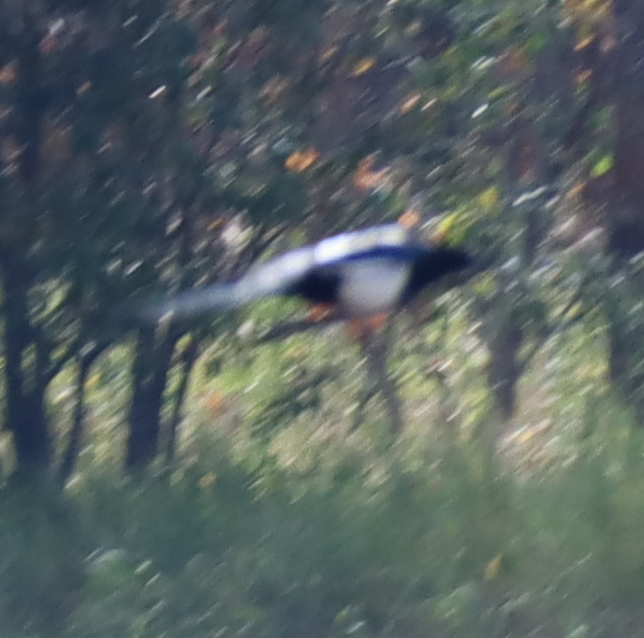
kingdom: Animalia
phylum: Chordata
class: Aves
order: Passeriformes
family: Corvidae
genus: Pica
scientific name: Pica hudsonia
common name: Black-billed magpie
